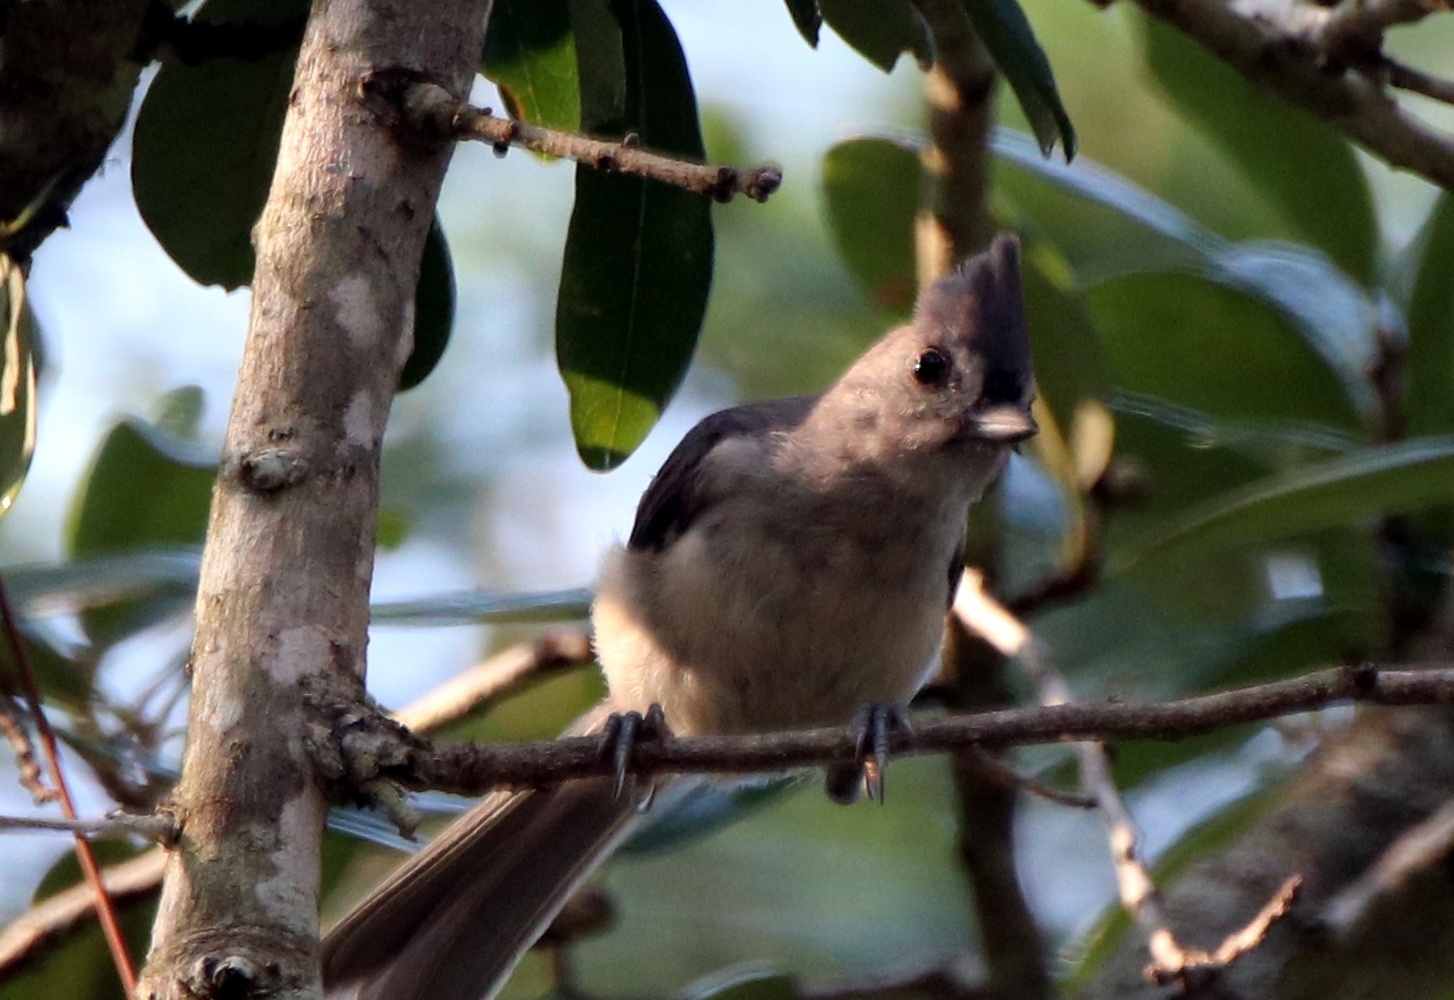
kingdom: Animalia
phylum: Chordata
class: Aves
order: Passeriformes
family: Paridae
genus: Baeolophus
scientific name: Baeolophus bicolor
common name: Tufted titmouse
